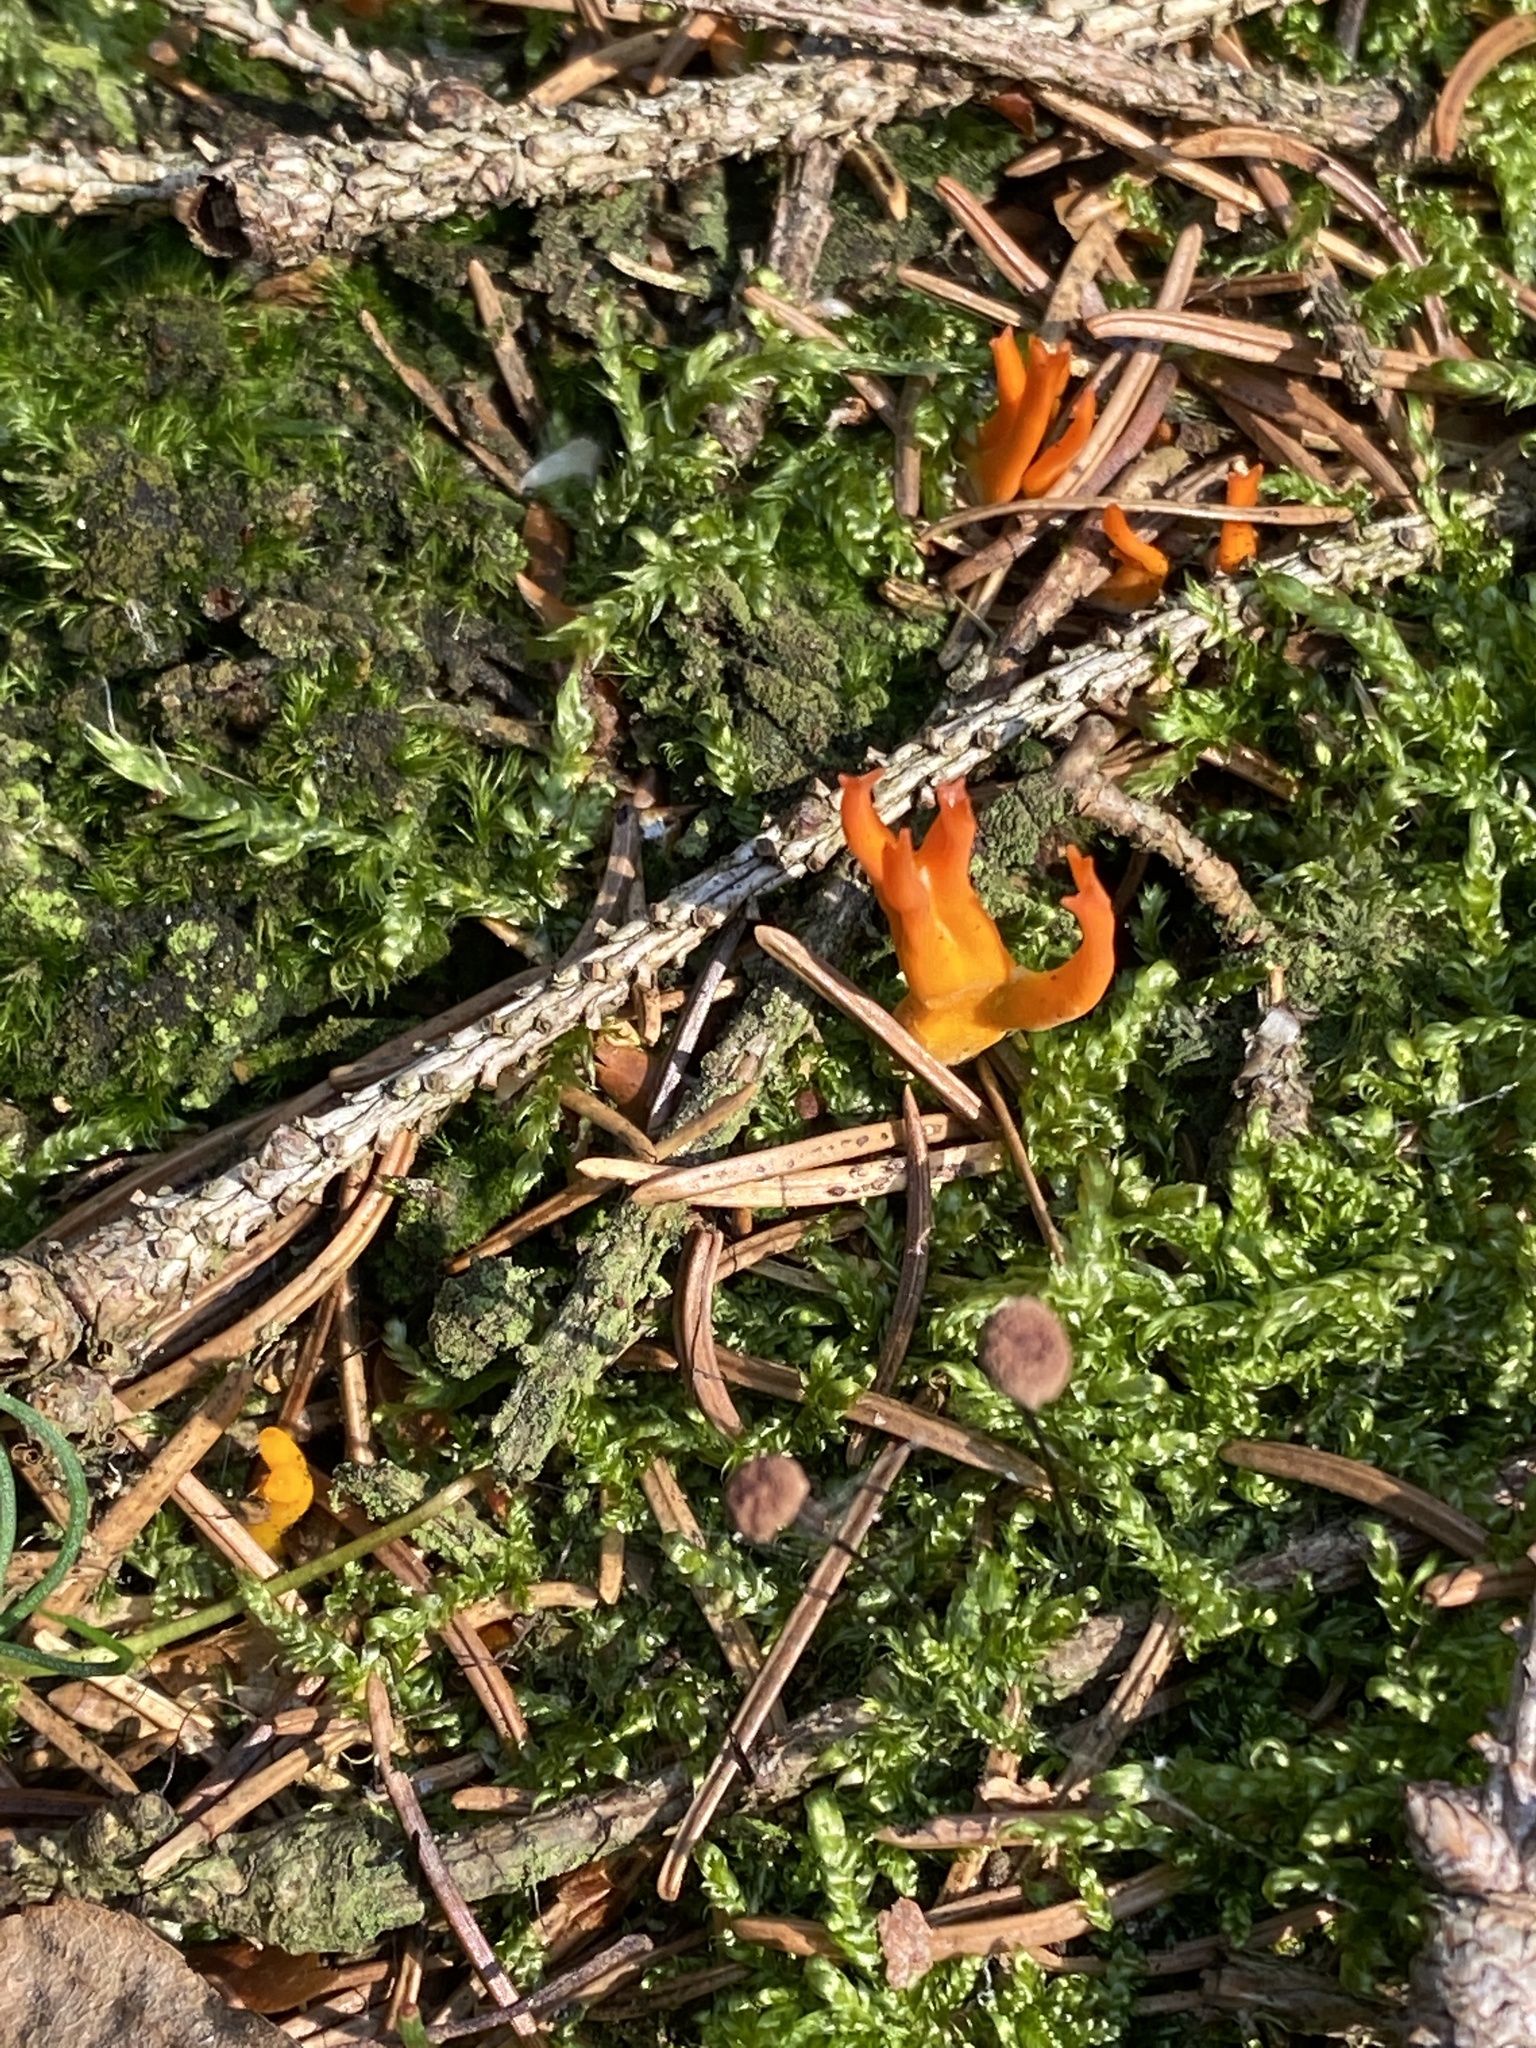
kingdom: Fungi
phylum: Basidiomycota
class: Dacrymycetes
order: Dacrymycetales
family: Dacrymycetaceae
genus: Calocera
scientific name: Calocera viscosa
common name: Yellow stagshorn
